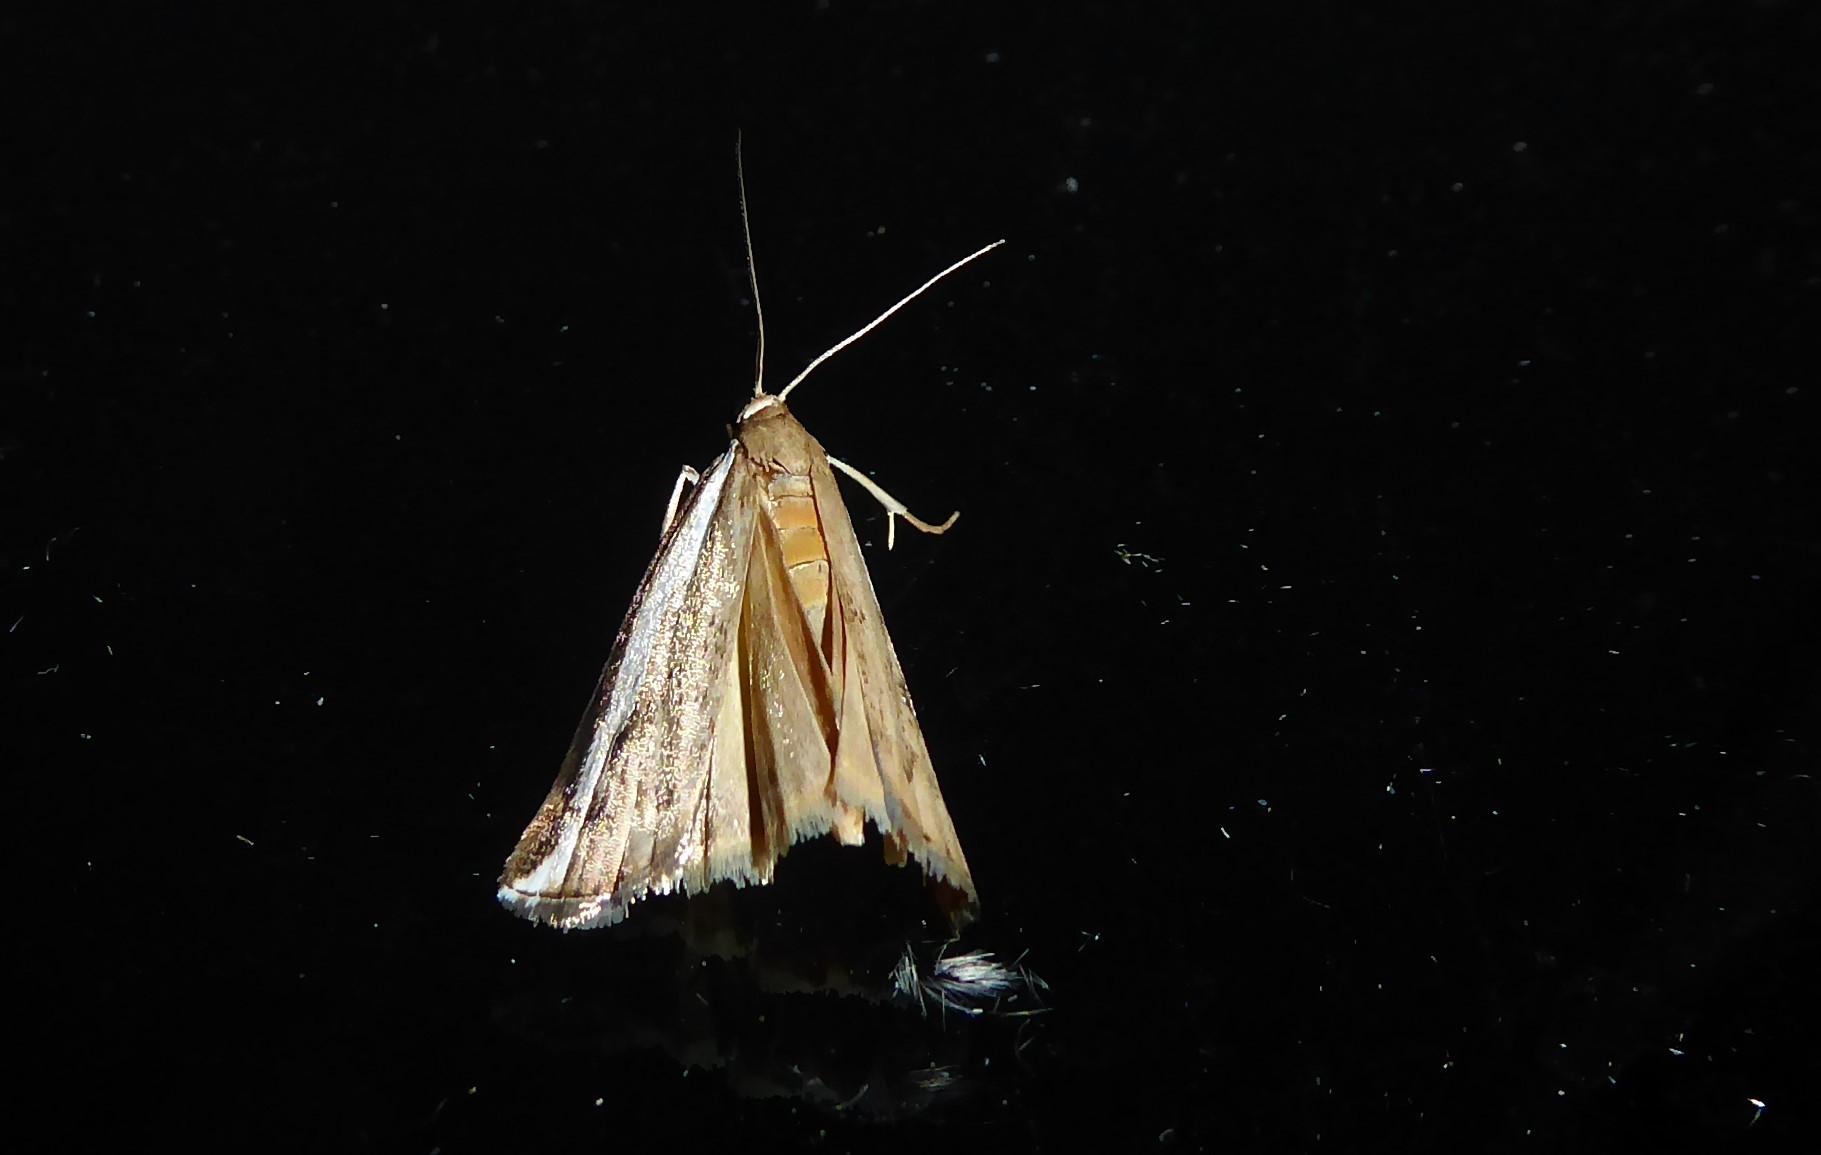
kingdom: Animalia
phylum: Arthropoda
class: Insecta
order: Lepidoptera
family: Crambidae
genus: Orocrambus
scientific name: Orocrambus flexuosellus
